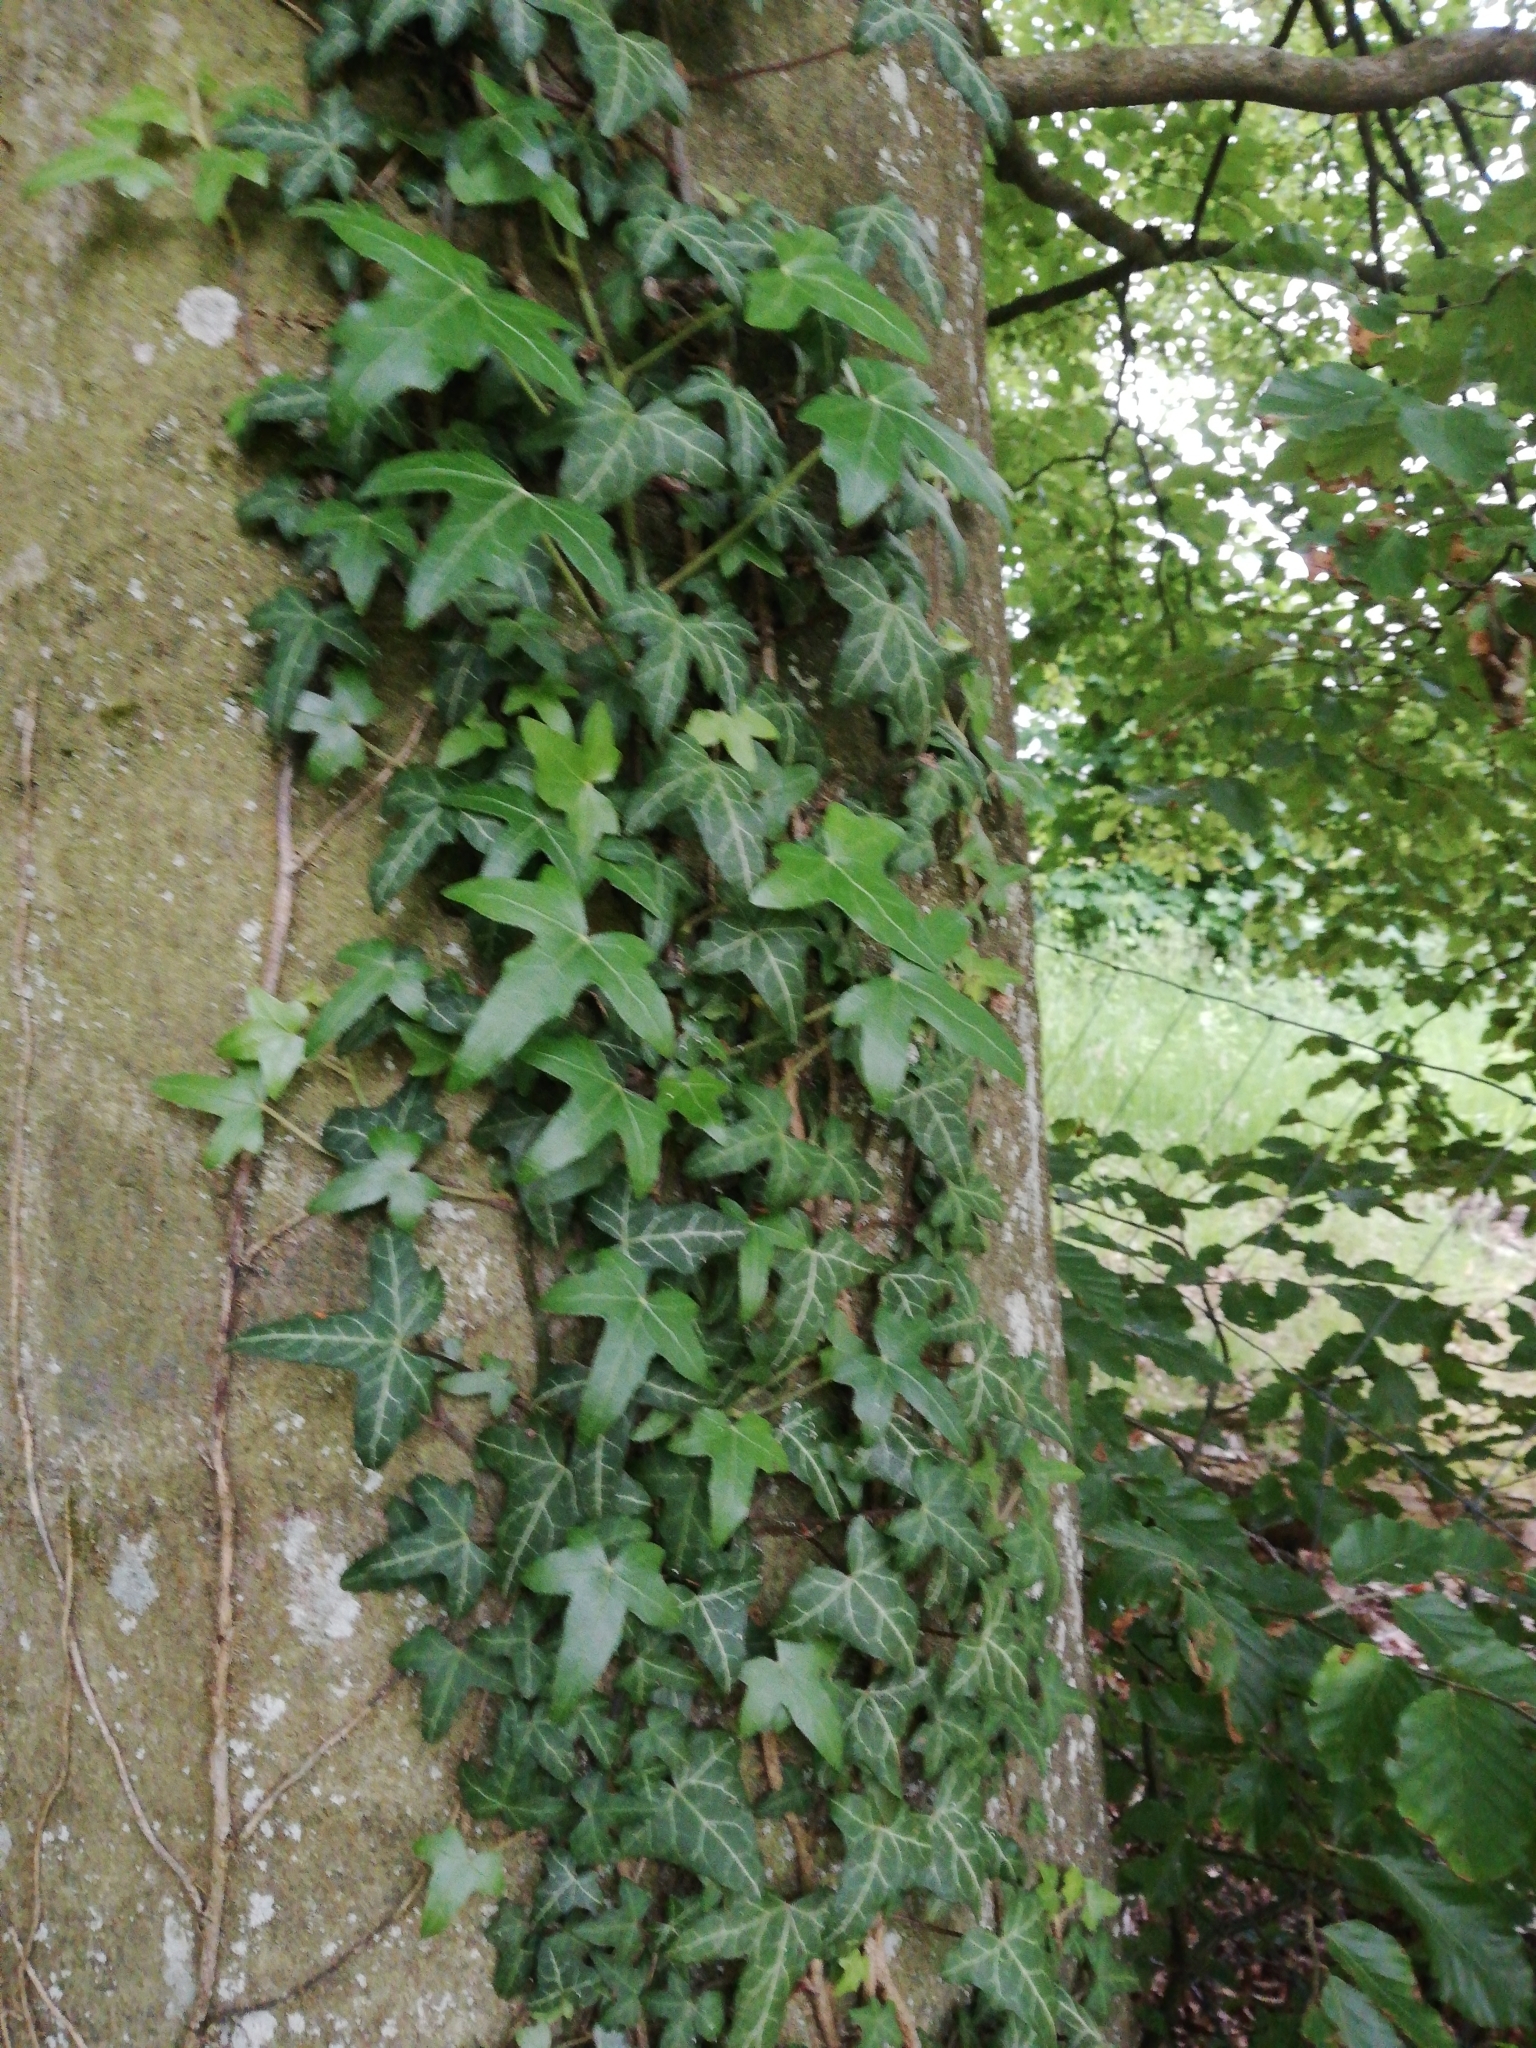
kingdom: Plantae
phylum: Tracheophyta
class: Magnoliopsida
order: Apiales
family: Araliaceae
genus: Hedera
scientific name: Hedera helix
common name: Ivy
